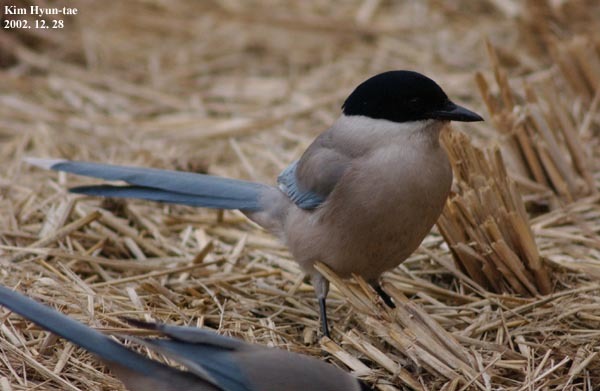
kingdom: Animalia
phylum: Chordata
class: Aves
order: Passeriformes
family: Corvidae
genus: Cyanopica
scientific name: Cyanopica cyanus
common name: Azure-winged magpie
